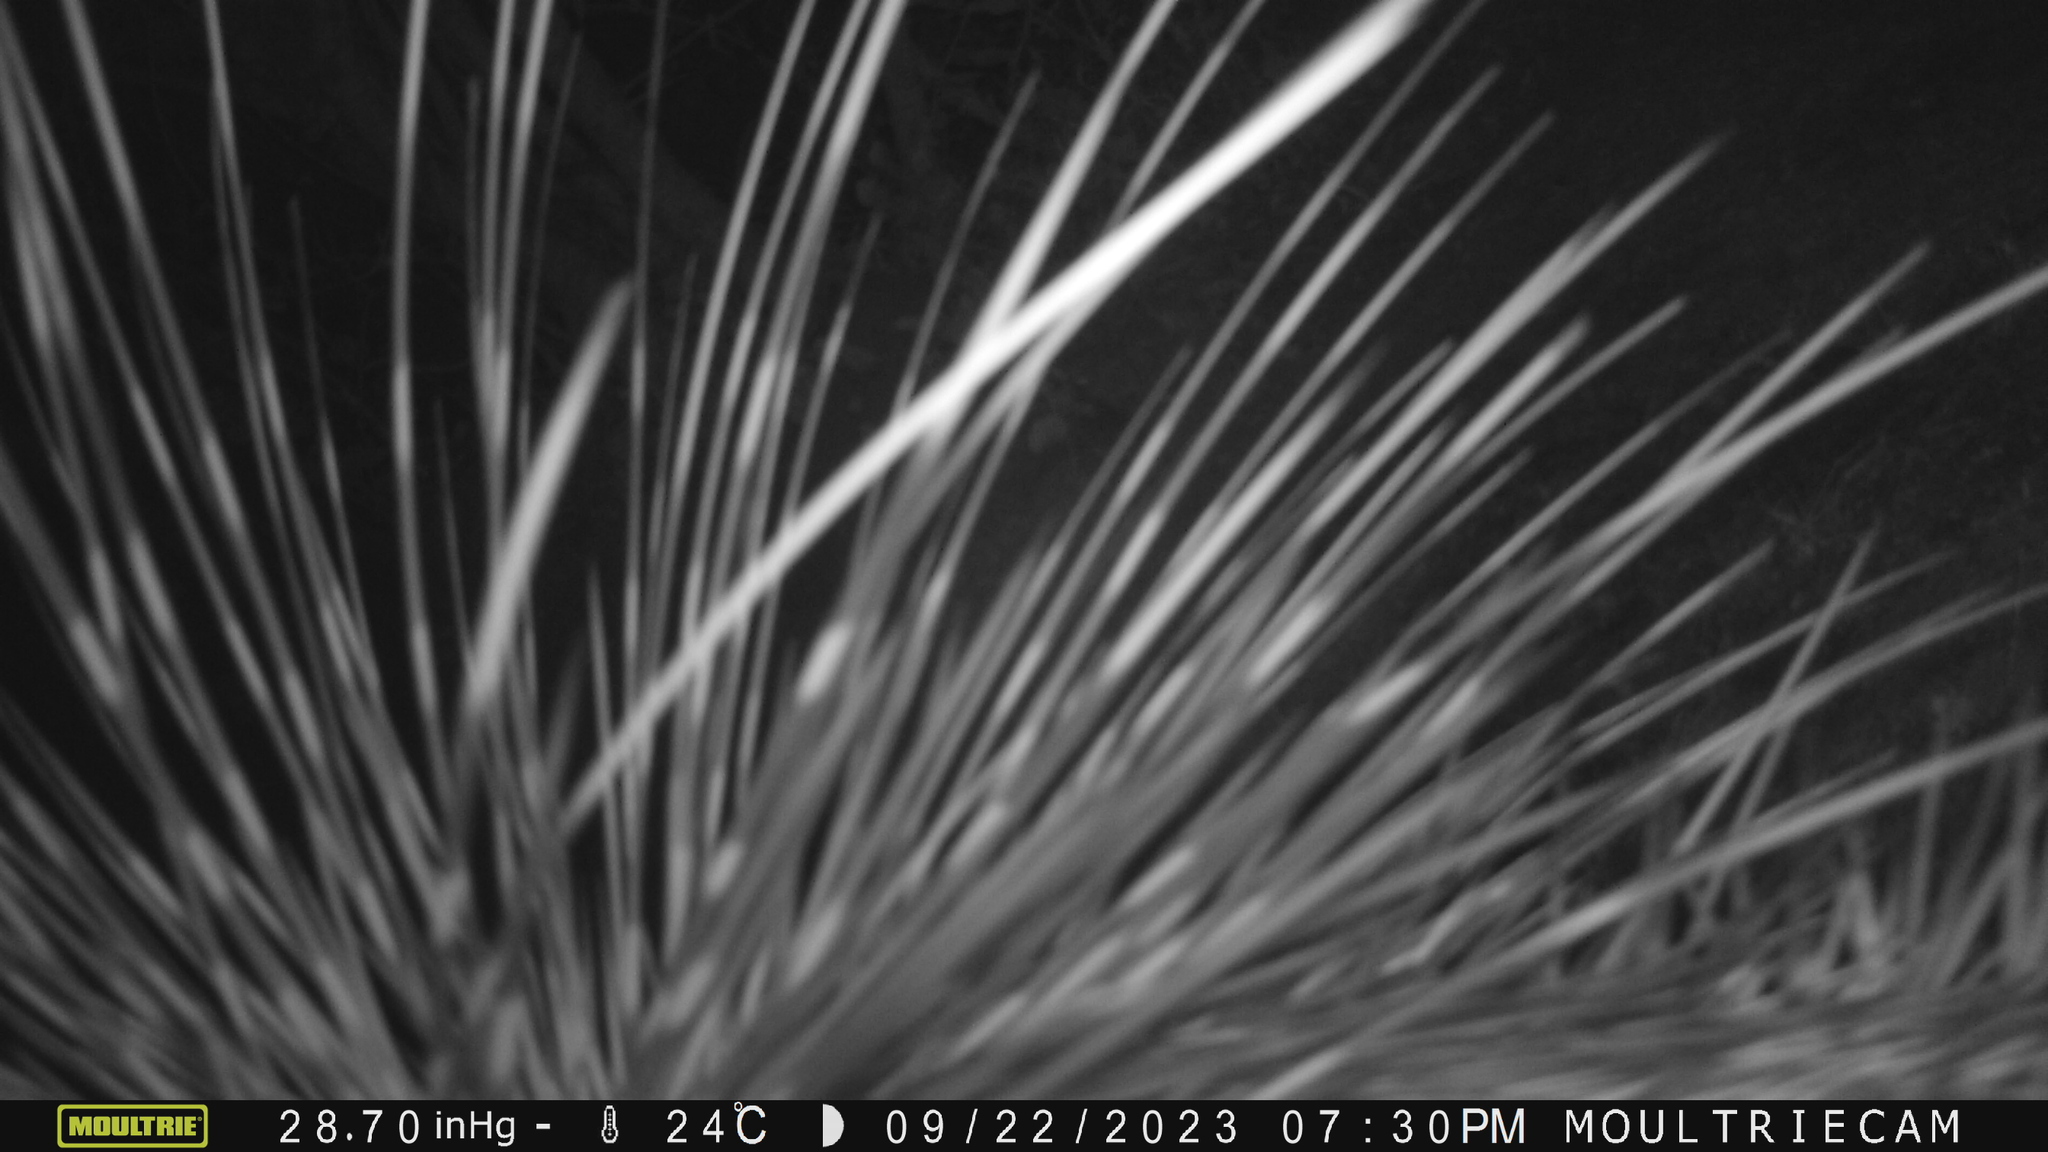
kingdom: Animalia
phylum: Chordata
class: Mammalia
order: Rodentia
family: Hystricidae
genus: Hystrix
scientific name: Hystrix indica
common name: Indian crested porcupine
